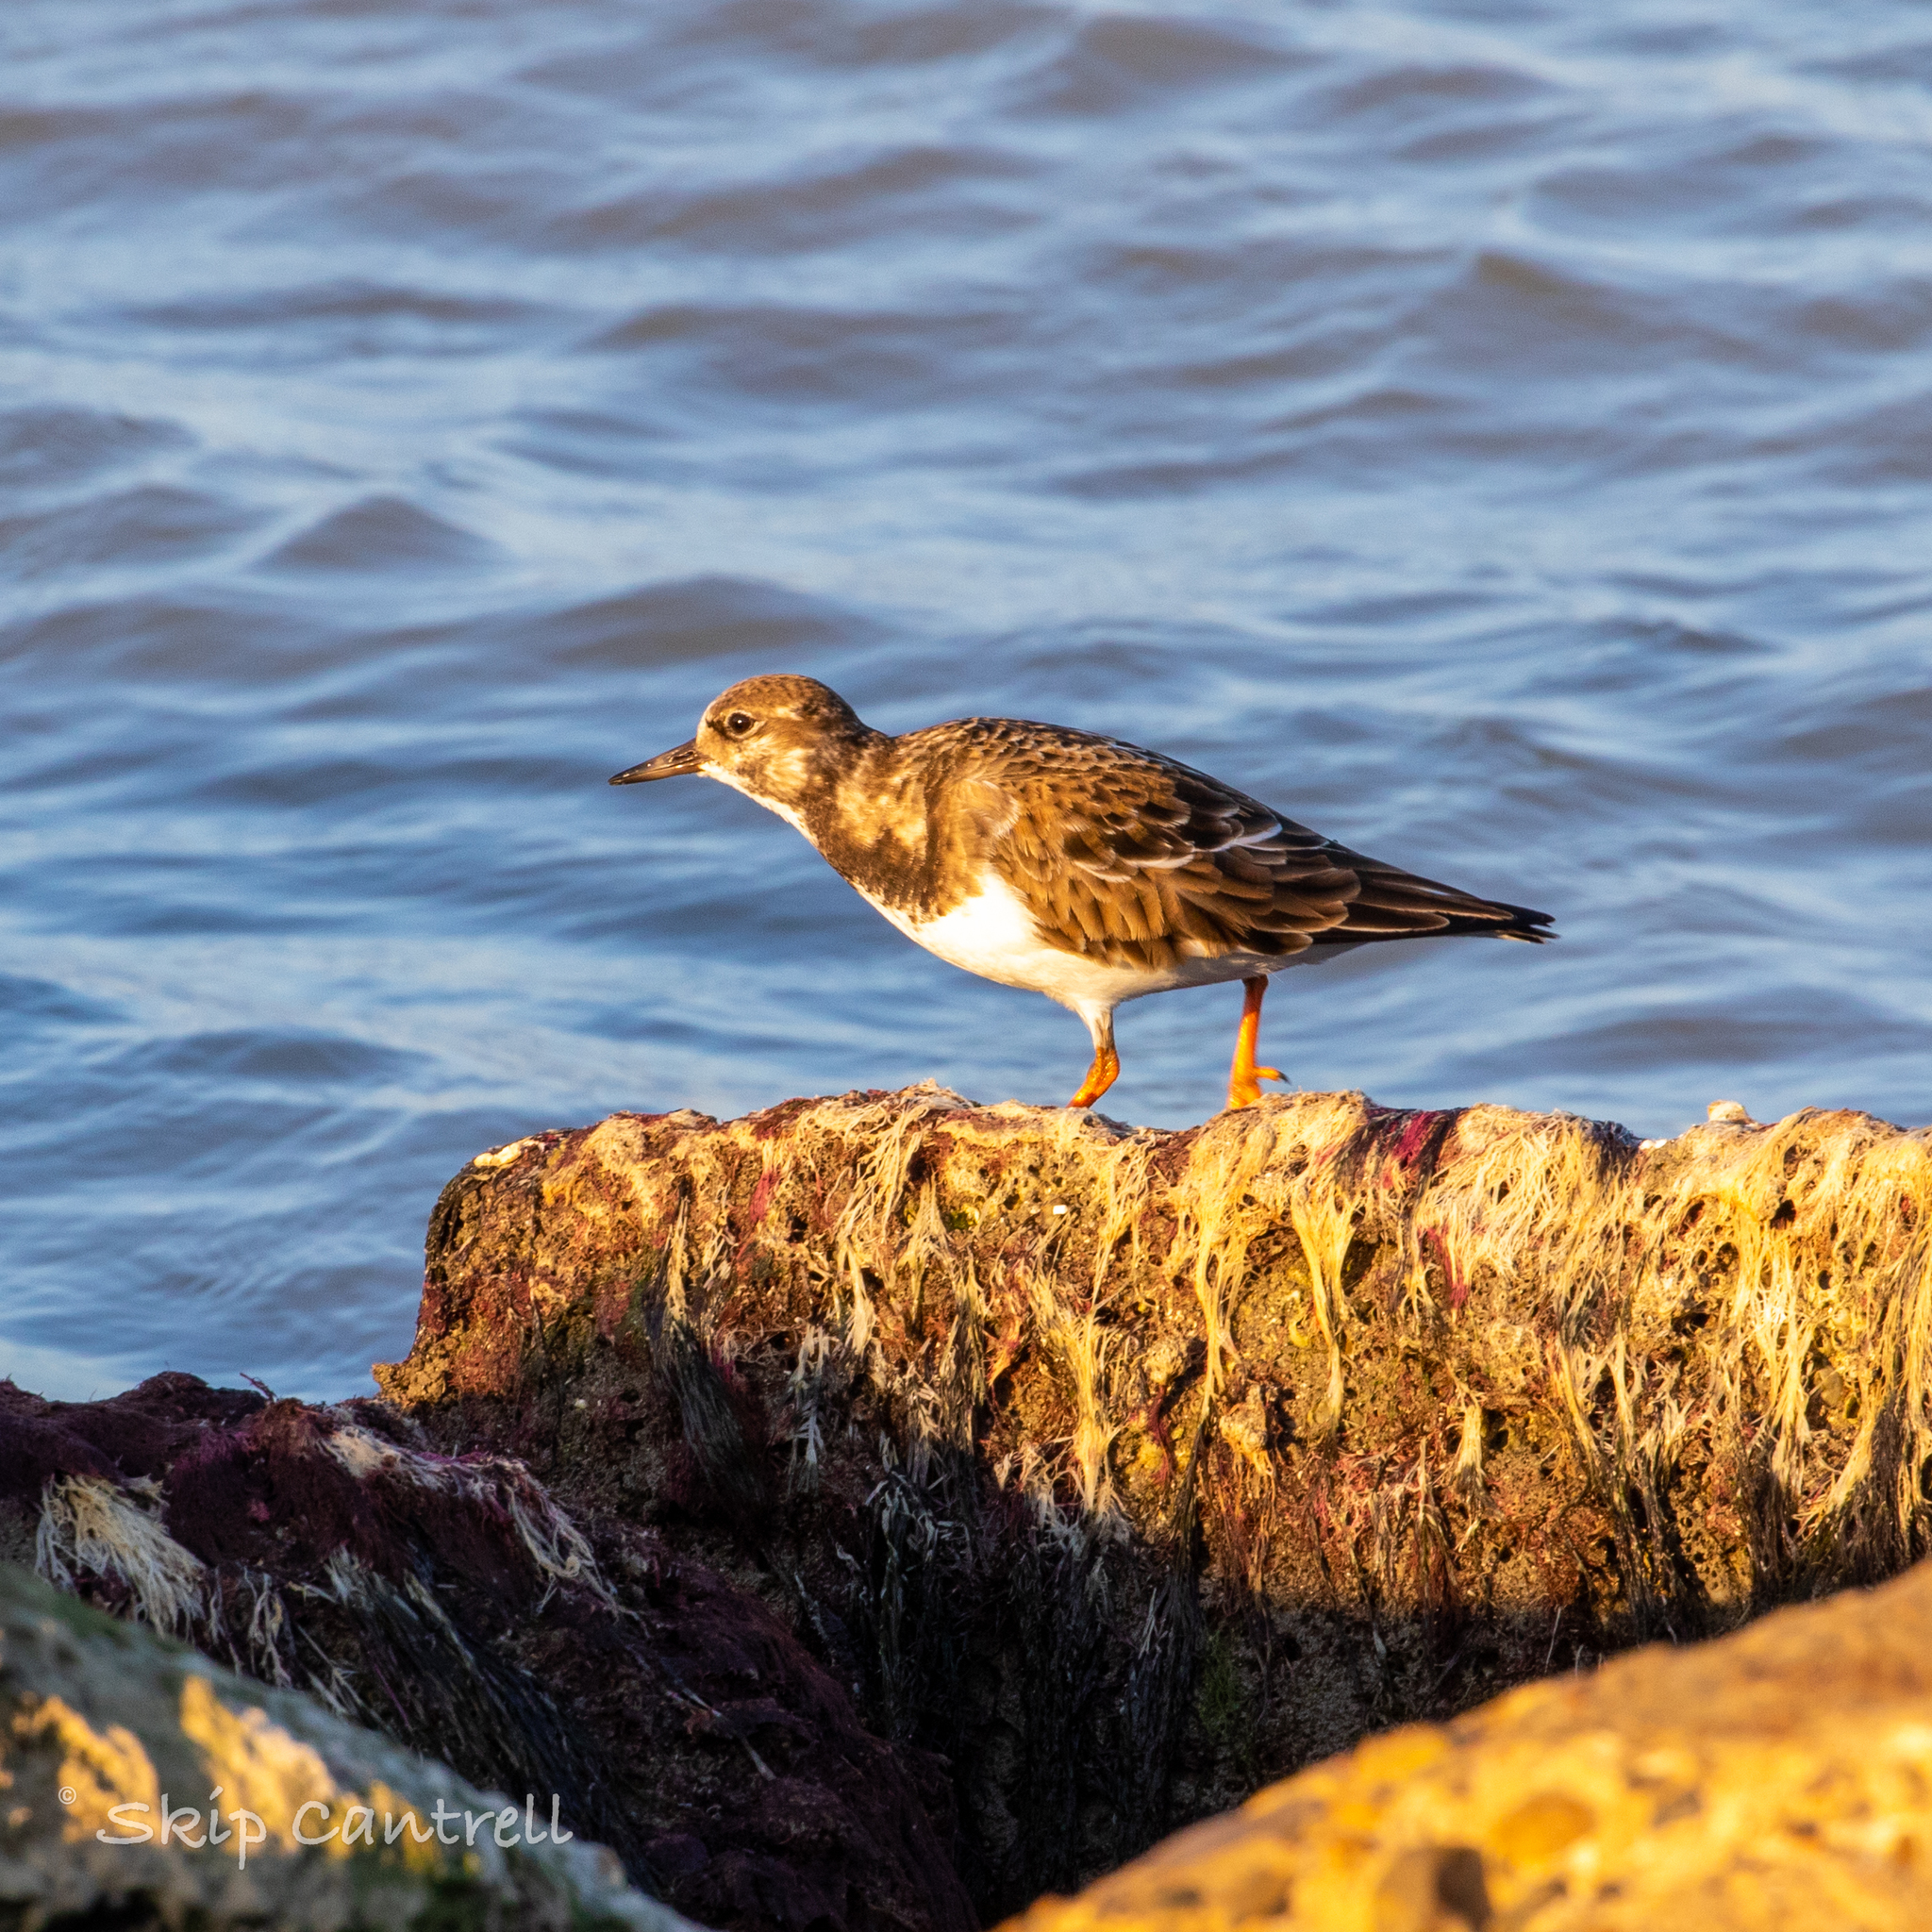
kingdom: Animalia
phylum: Chordata
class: Aves
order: Charadriiformes
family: Scolopacidae
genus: Arenaria
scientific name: Arenaria interpres
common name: Ruddy turnstone
